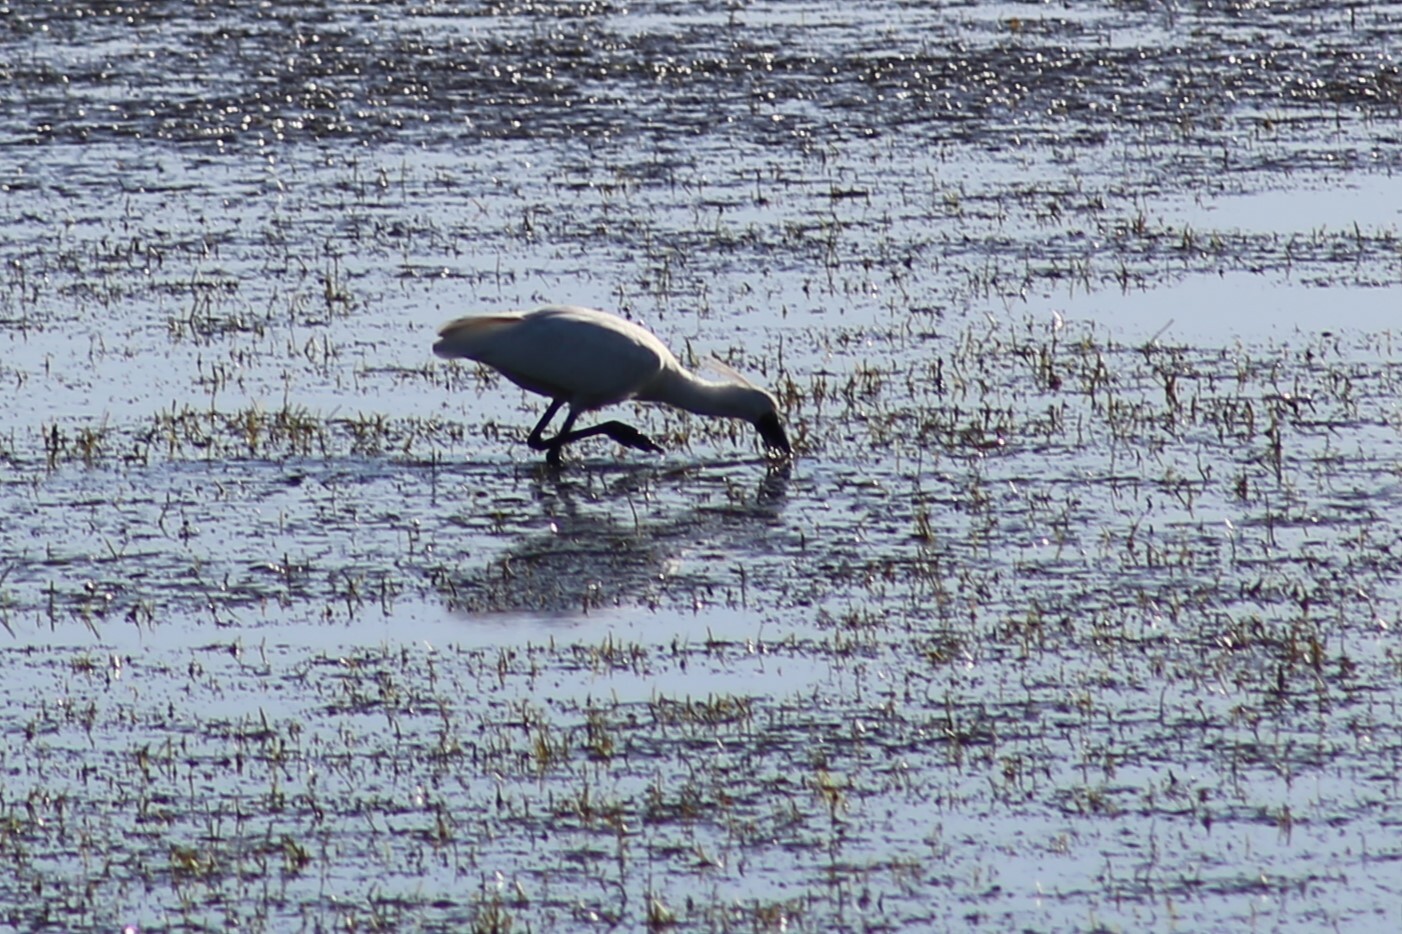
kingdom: Animalia
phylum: Chordata
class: Aves
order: Pelecaniformes
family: Threskiornithidae
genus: Platalea
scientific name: Platalea regia
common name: Royal spoonbill
